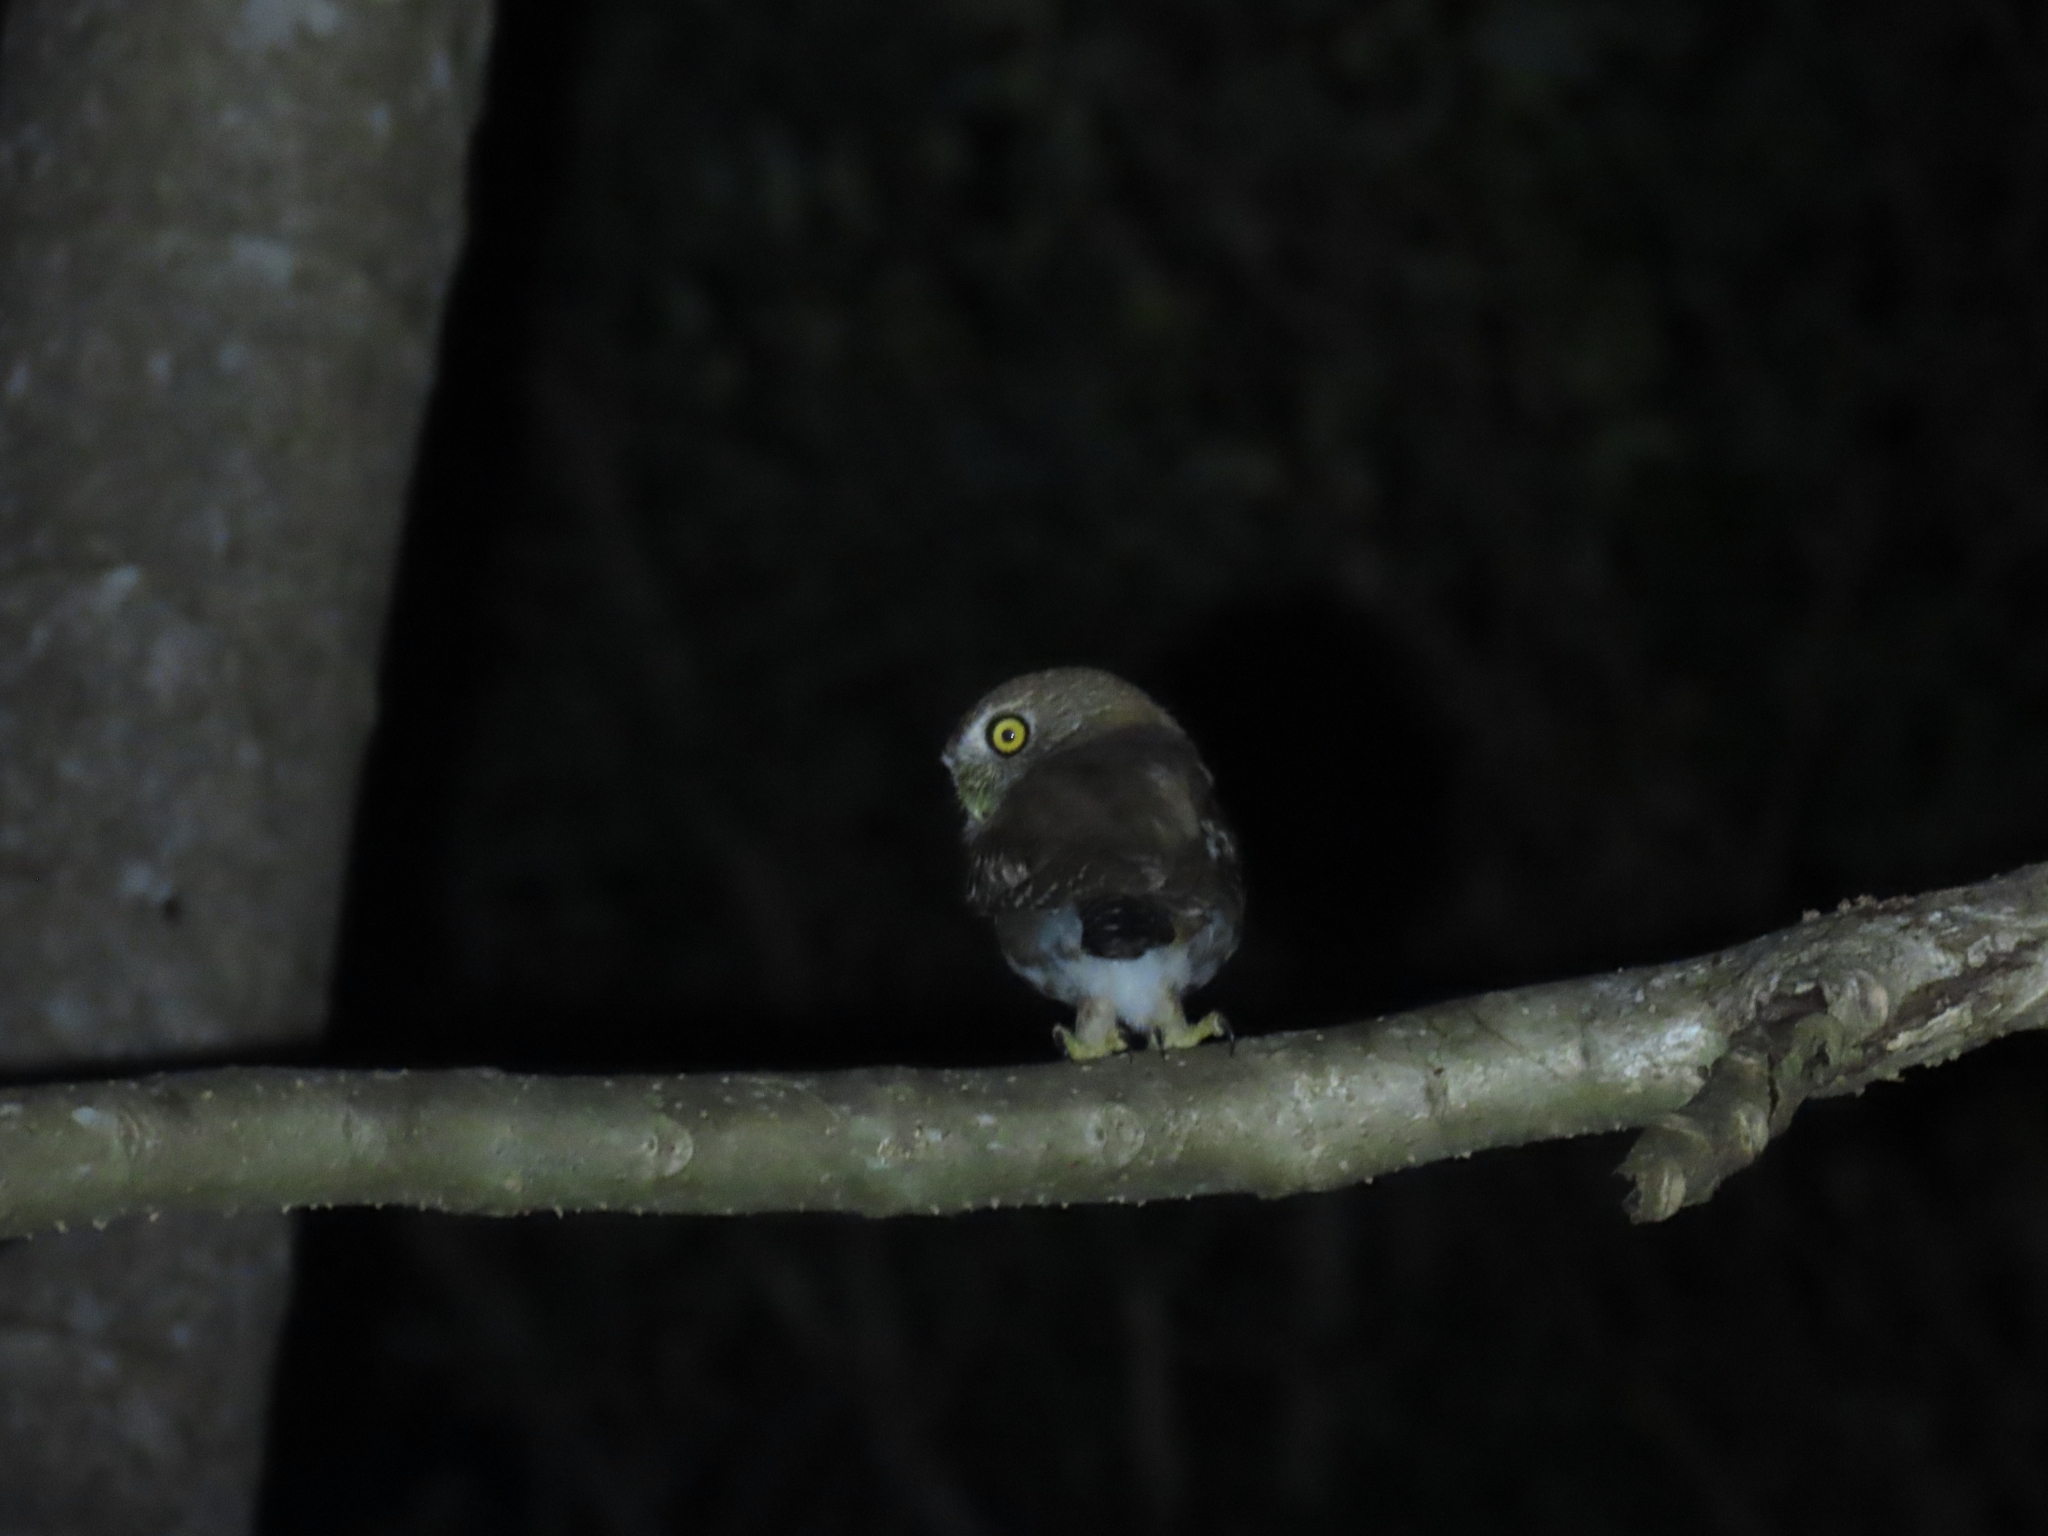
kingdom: Animalia
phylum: Chordata
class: Aves
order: Strigiformes
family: Strigidae
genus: Glaucidium
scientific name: Glaucidium brasilianum
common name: Ferruginous pygmy-owl
